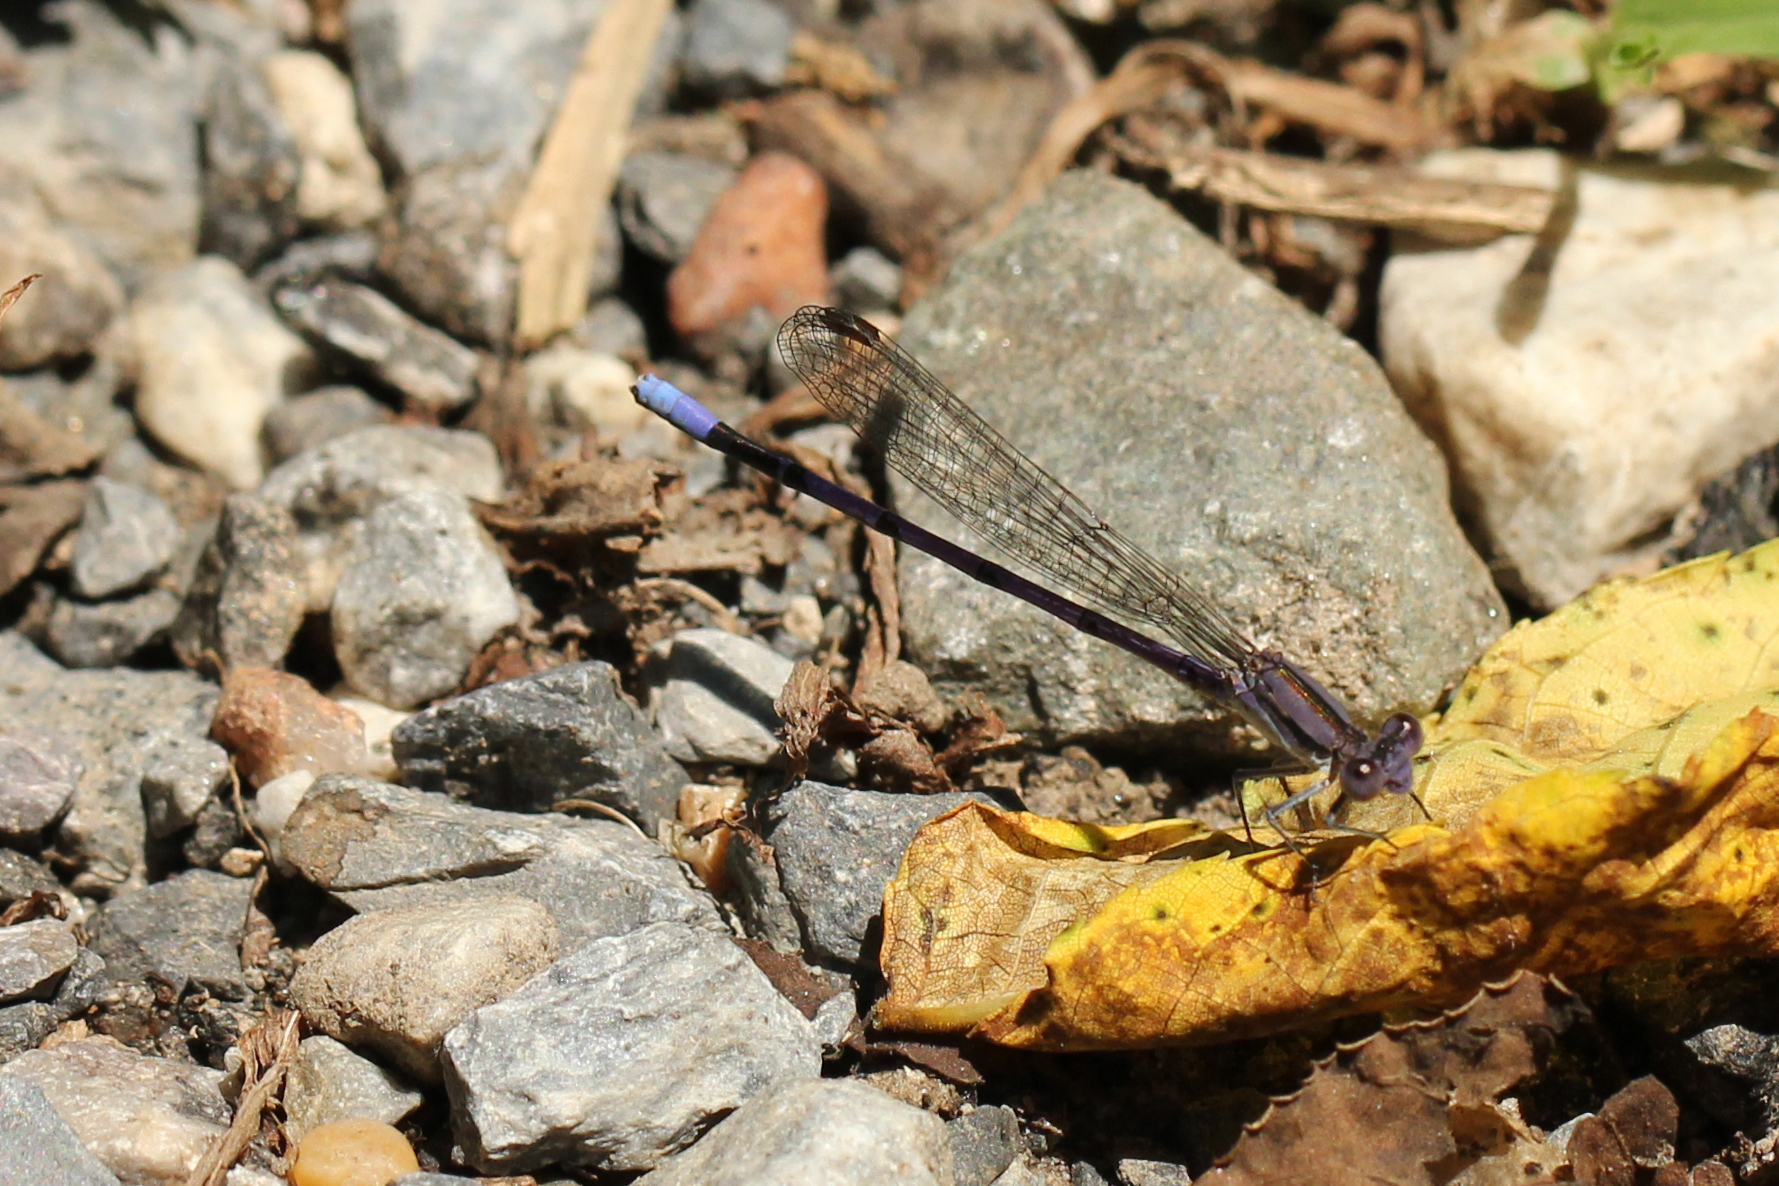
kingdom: Animalia
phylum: Arthropoda
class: Insecta
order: Odonata
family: Coenagrionidae
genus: Argia
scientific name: Argia fumipennis
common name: Variable dancer
